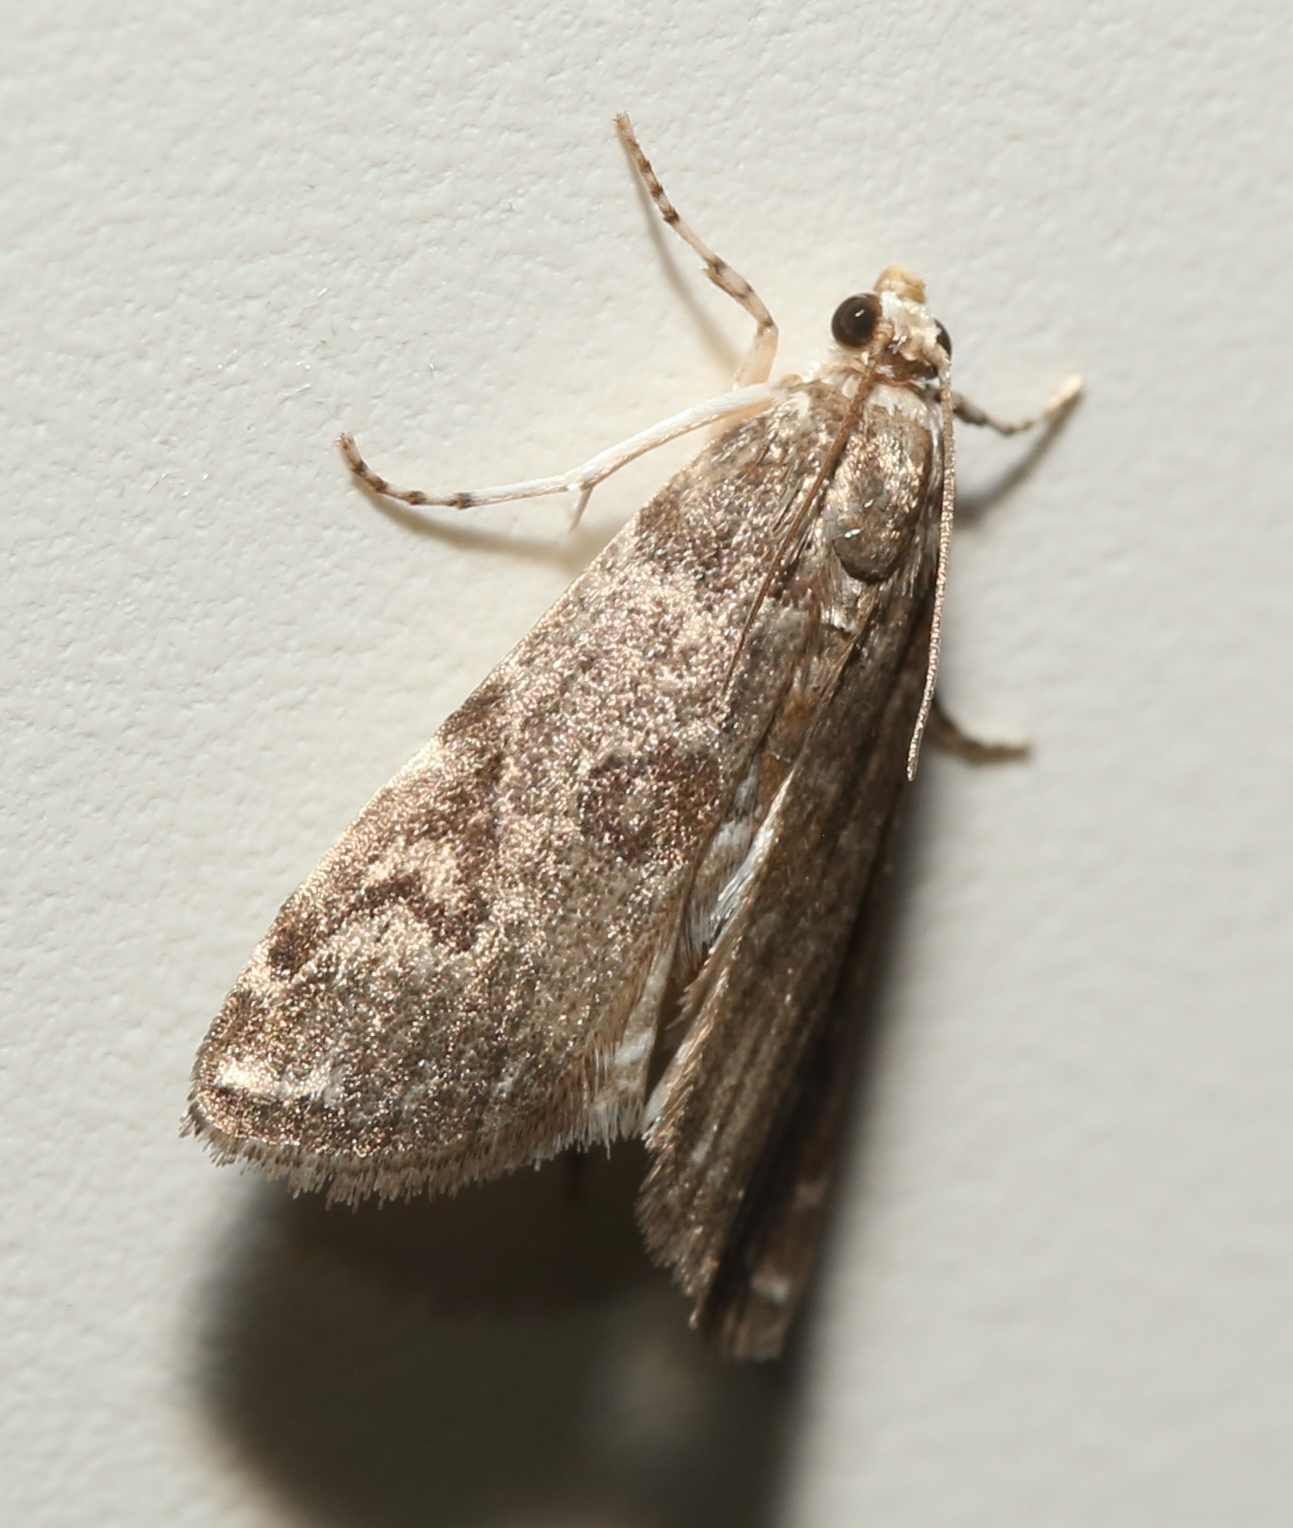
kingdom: Animalia
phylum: Arthropoda
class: Insecta
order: Lepidoptera
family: Crambidae
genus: Elophila
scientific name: Elophila gyralis
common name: Waterlily borer moth
